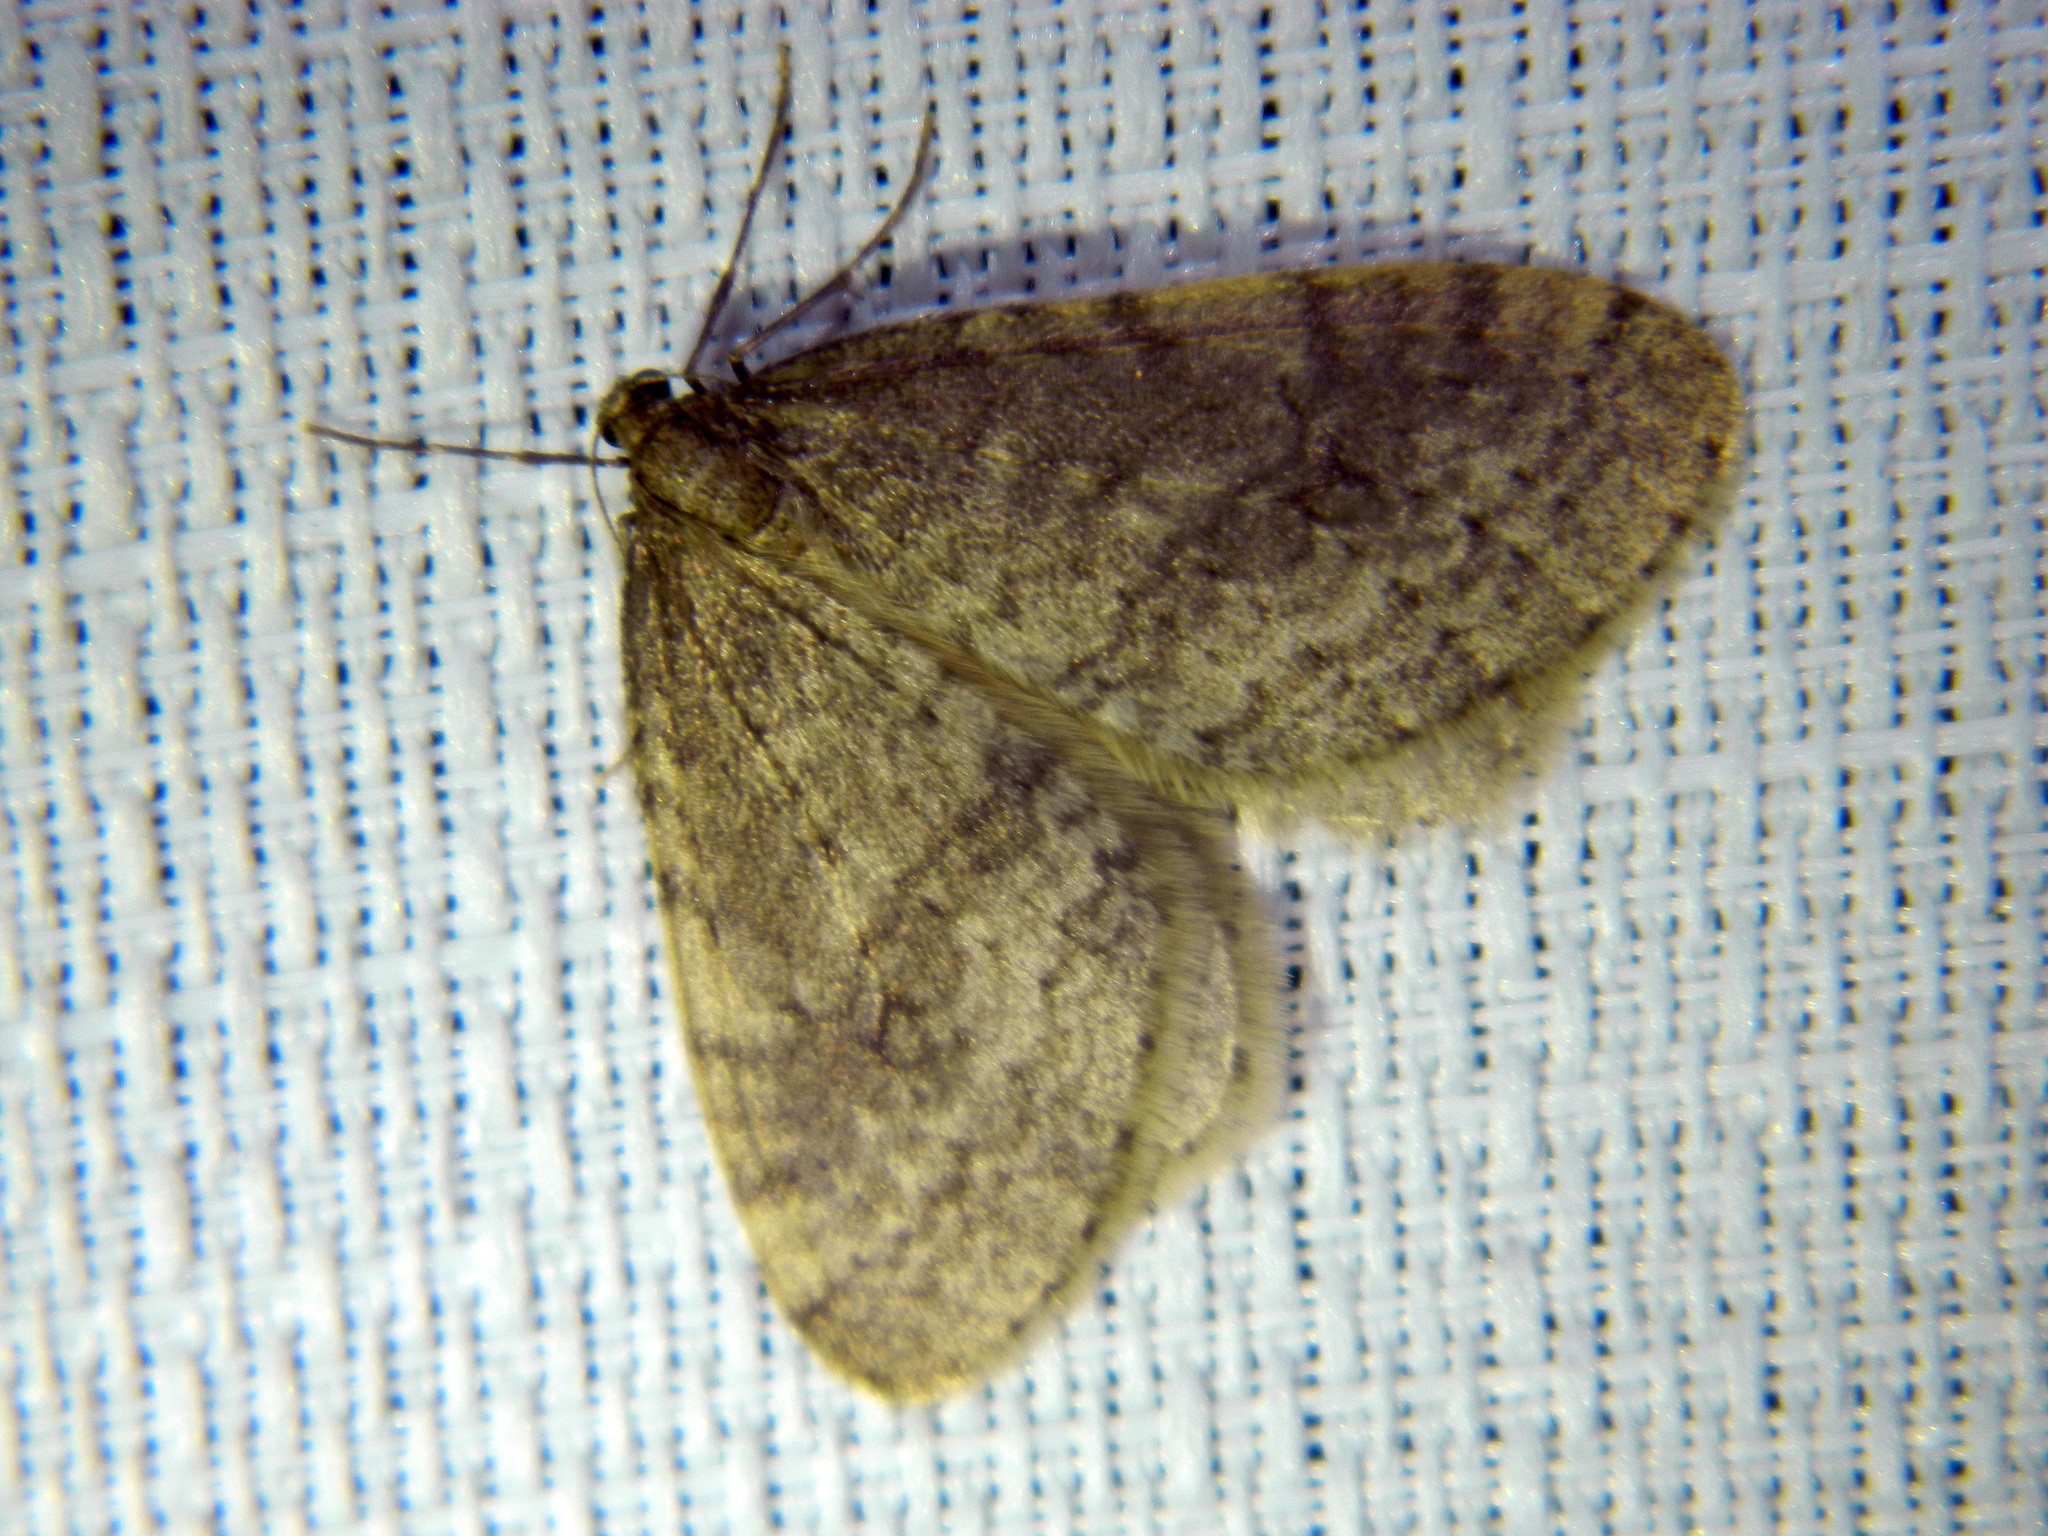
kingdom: Animalia
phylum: Arthropoda
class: Insecta
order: Lepidoptera
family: Geometridae
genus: Operophtera
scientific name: Operophtera bruceata
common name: Bruce spanworm
